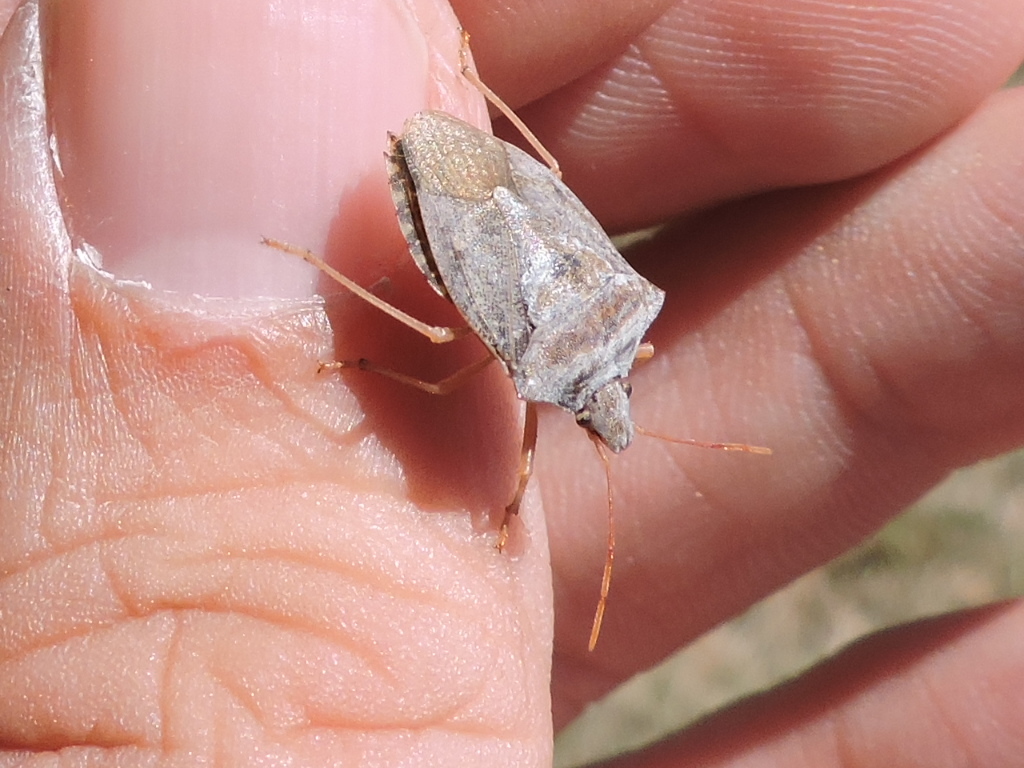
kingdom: Animalia
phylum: Arthropoda
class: Insecta
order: Hemiptera
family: Pentatomidae
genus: Euschistus
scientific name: Euschistus servus
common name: Brown stink bug
